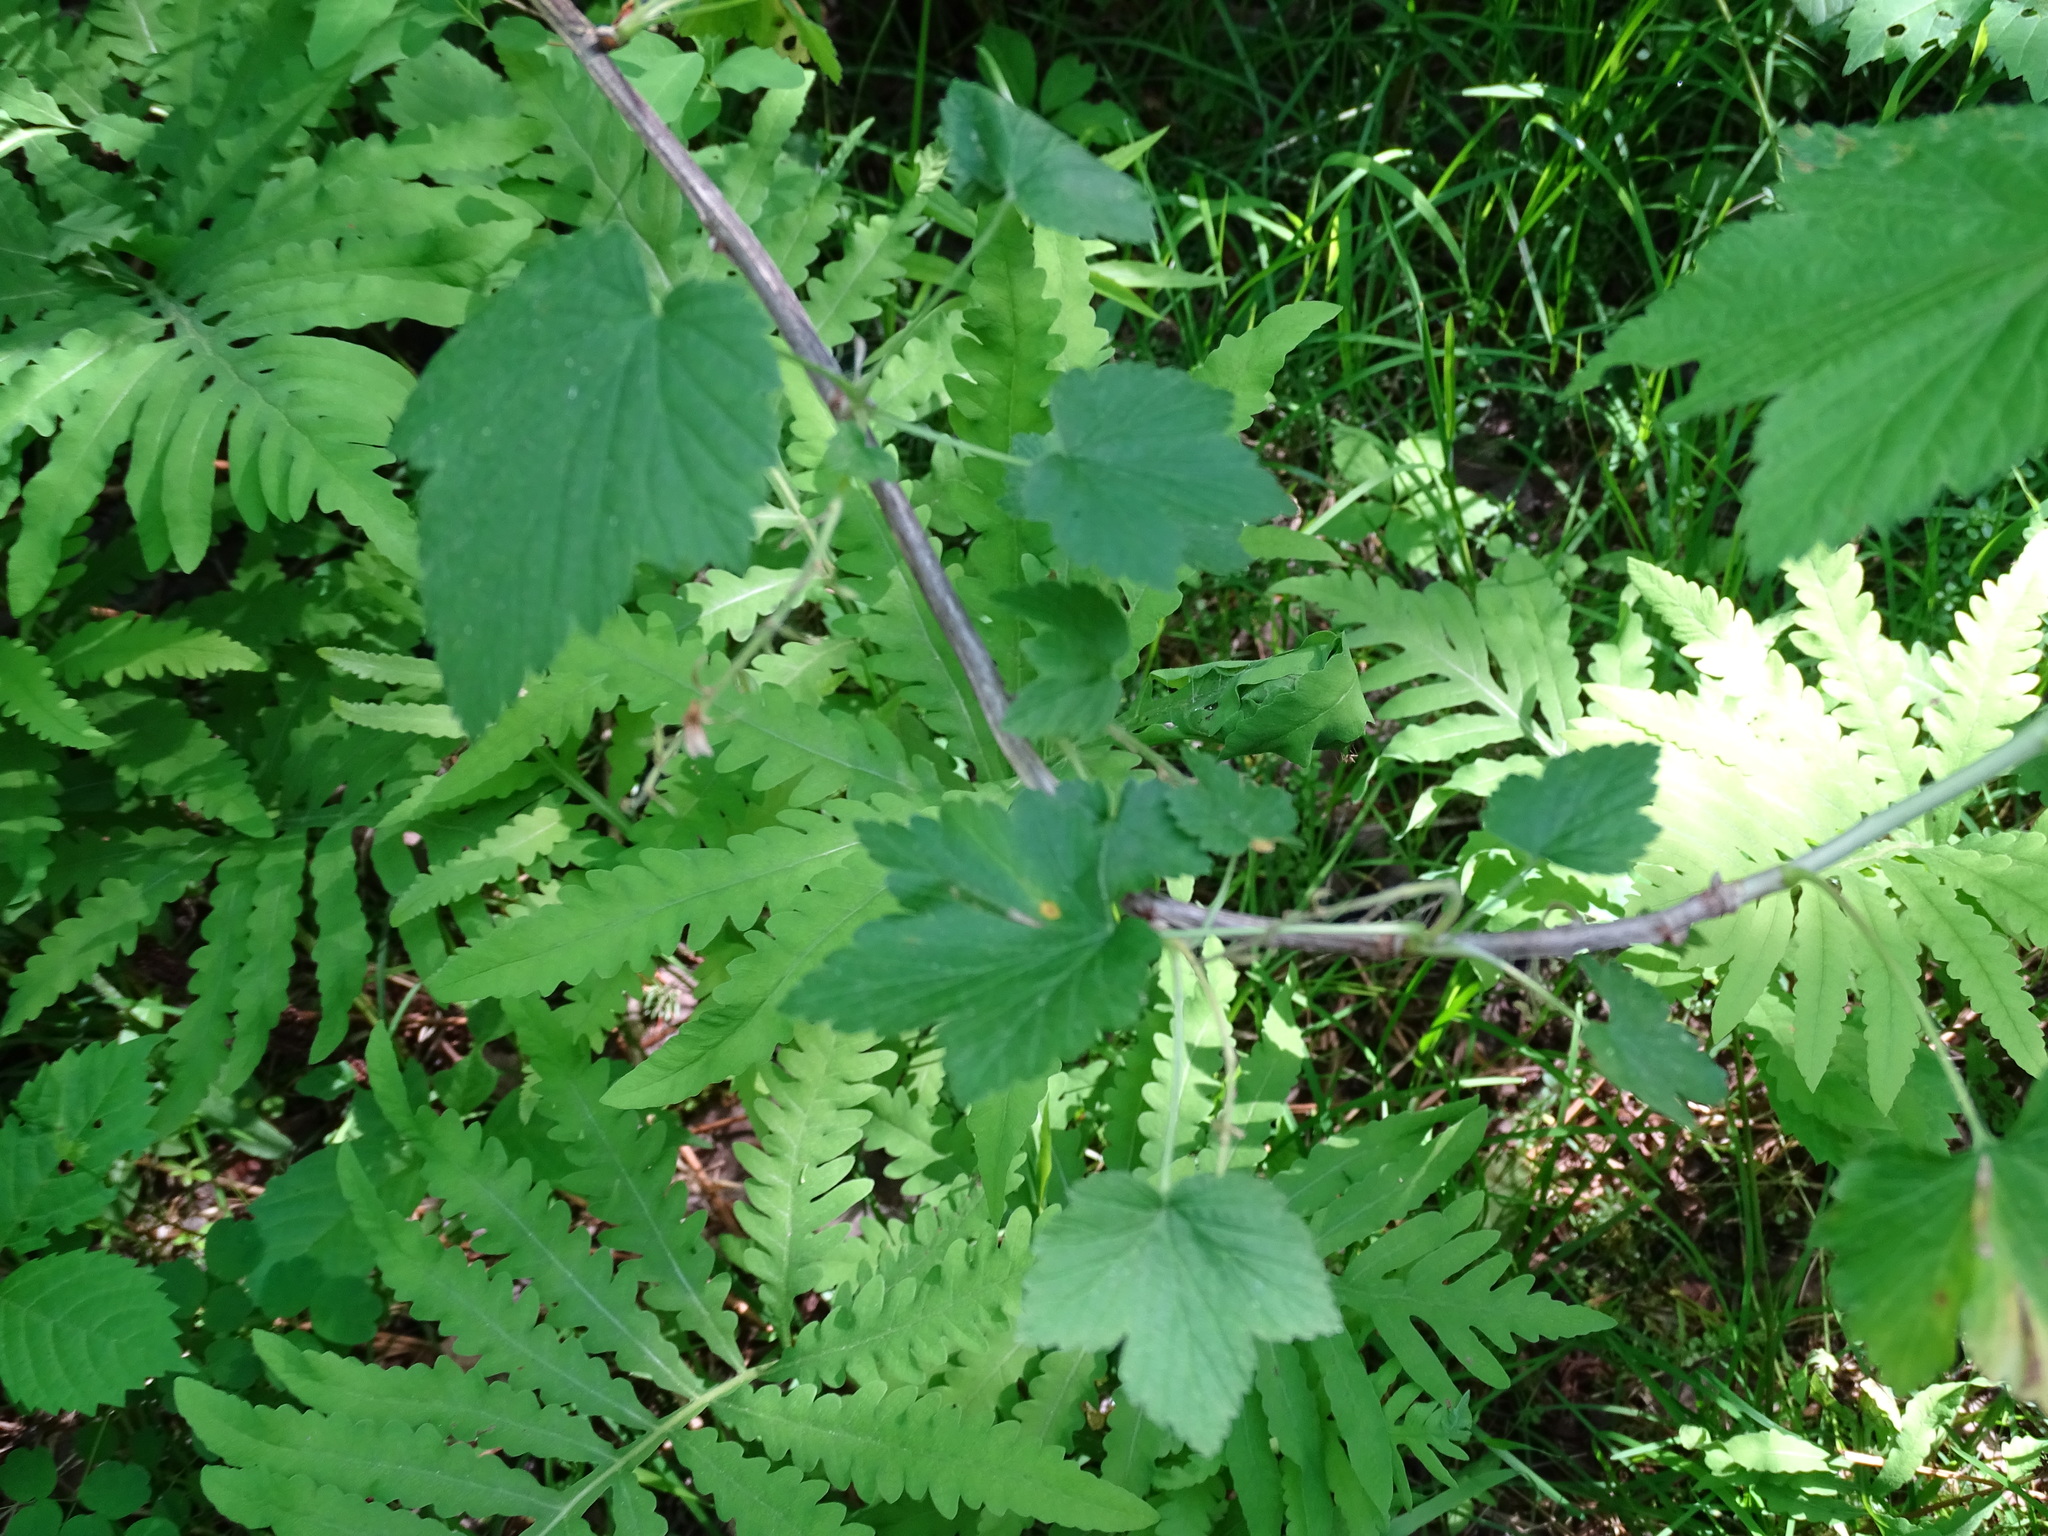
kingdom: Plantae
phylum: Tracheophyta
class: Magnoliopsida
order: Saxifragales
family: Grossulariaceae
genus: Ribes
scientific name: Ribes americanum
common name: American black currant
